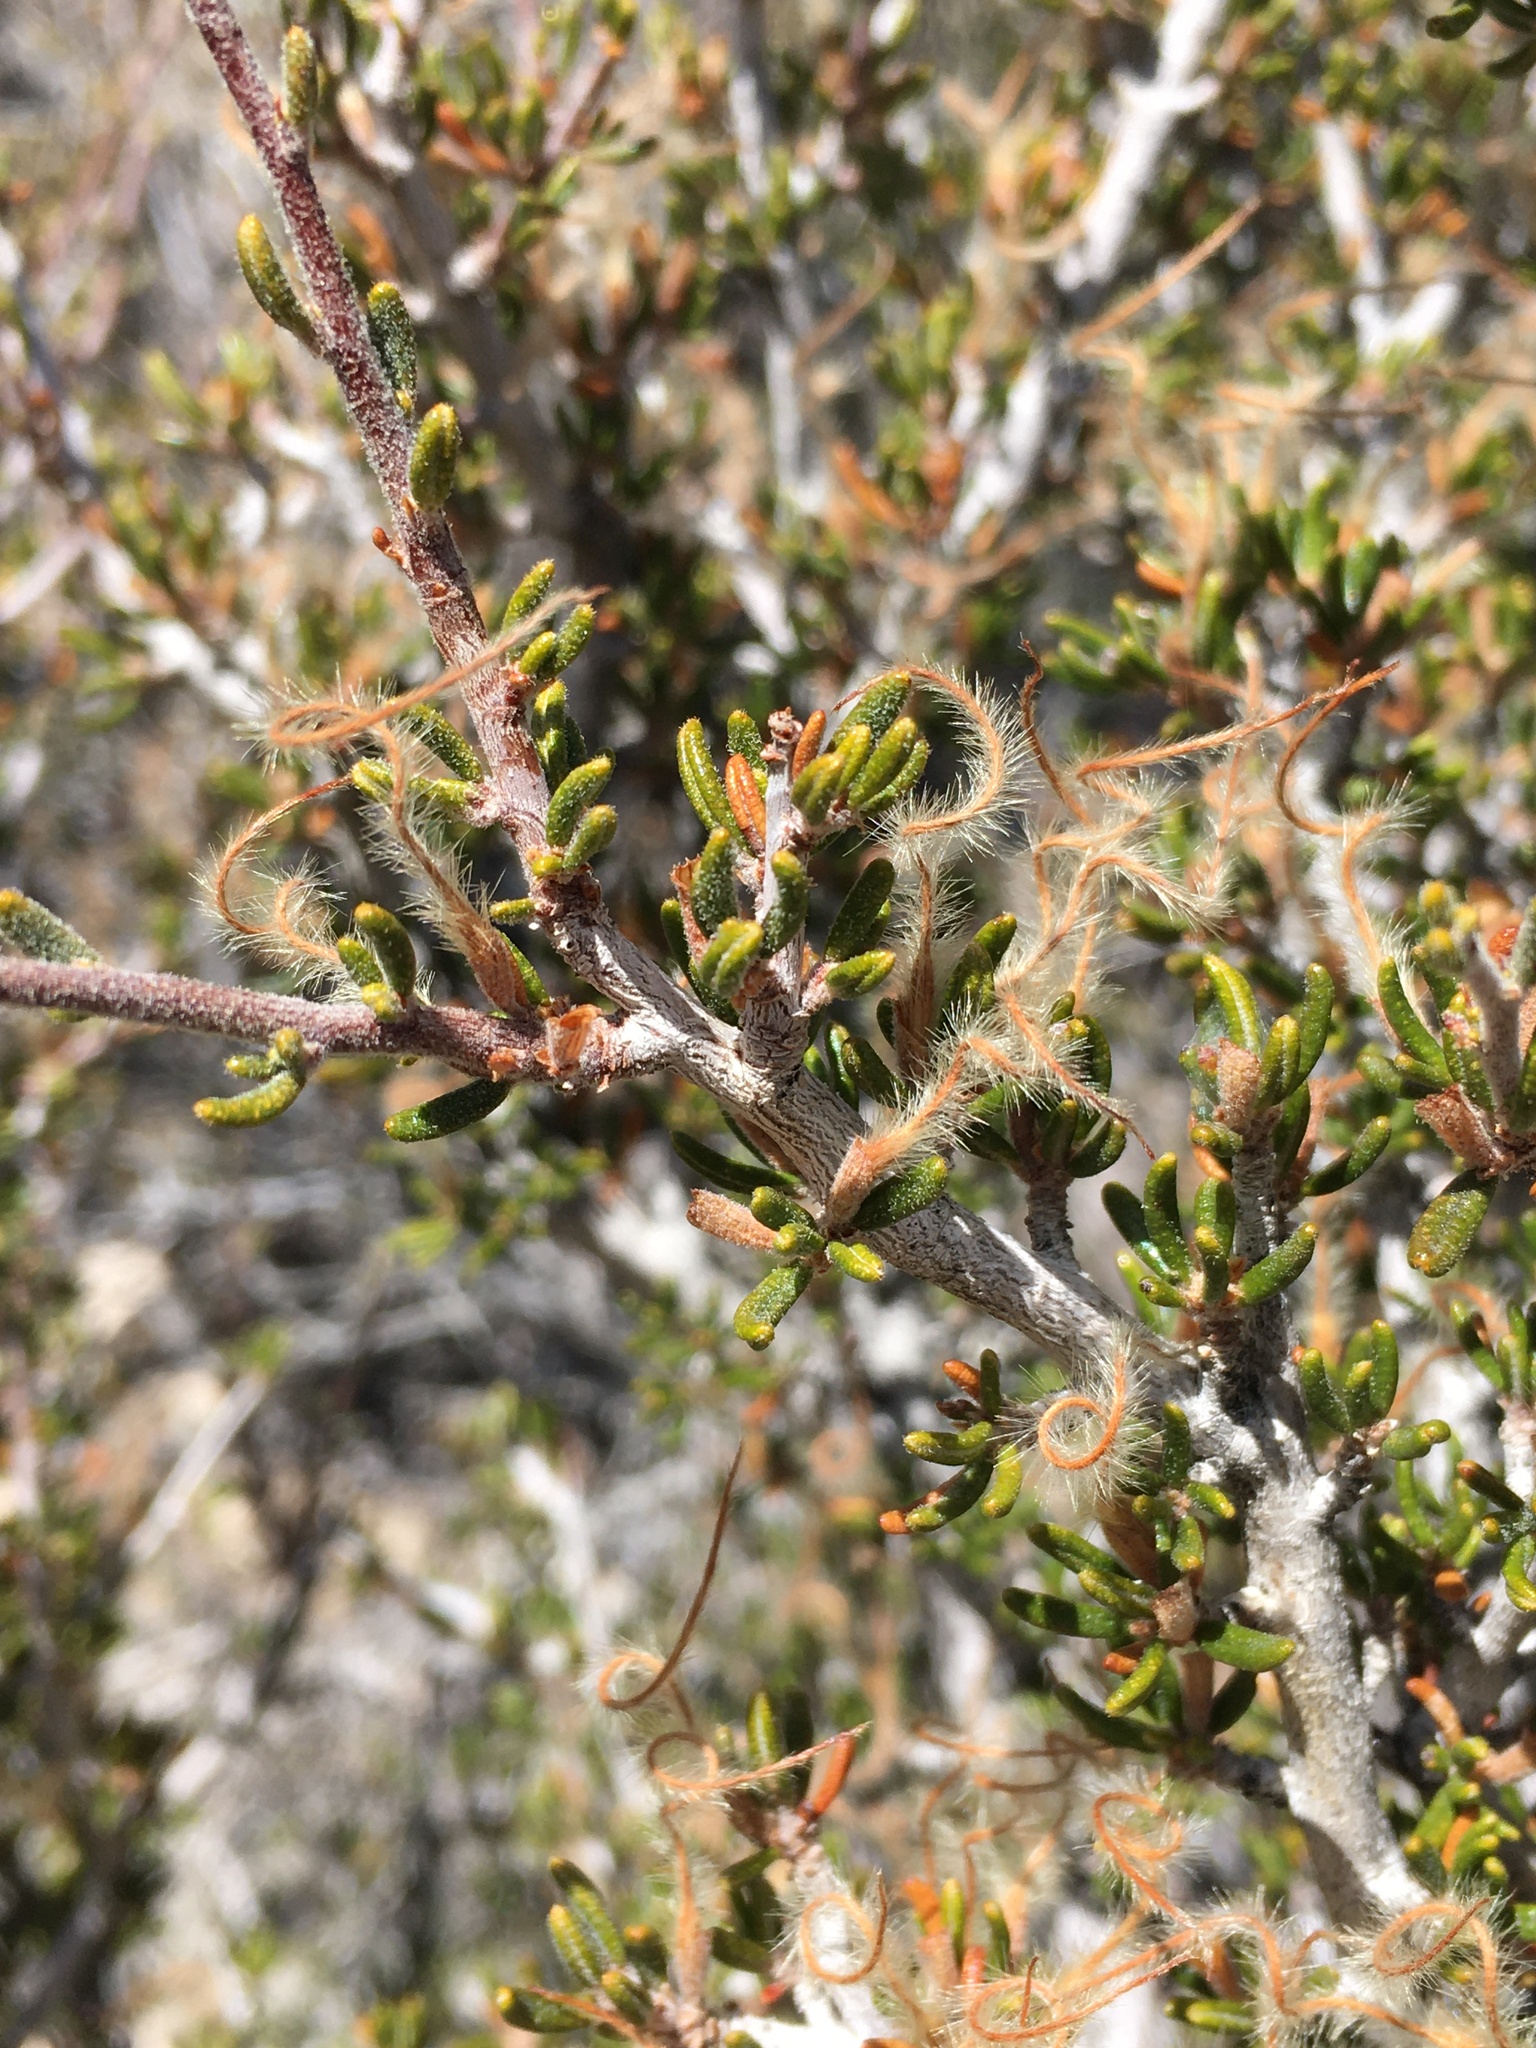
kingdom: Plantae
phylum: Tracheophyta
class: Magnoliopsida
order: Rosales
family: Rosaceae
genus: Cercocarpus
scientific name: Cercocarpus intricatus
